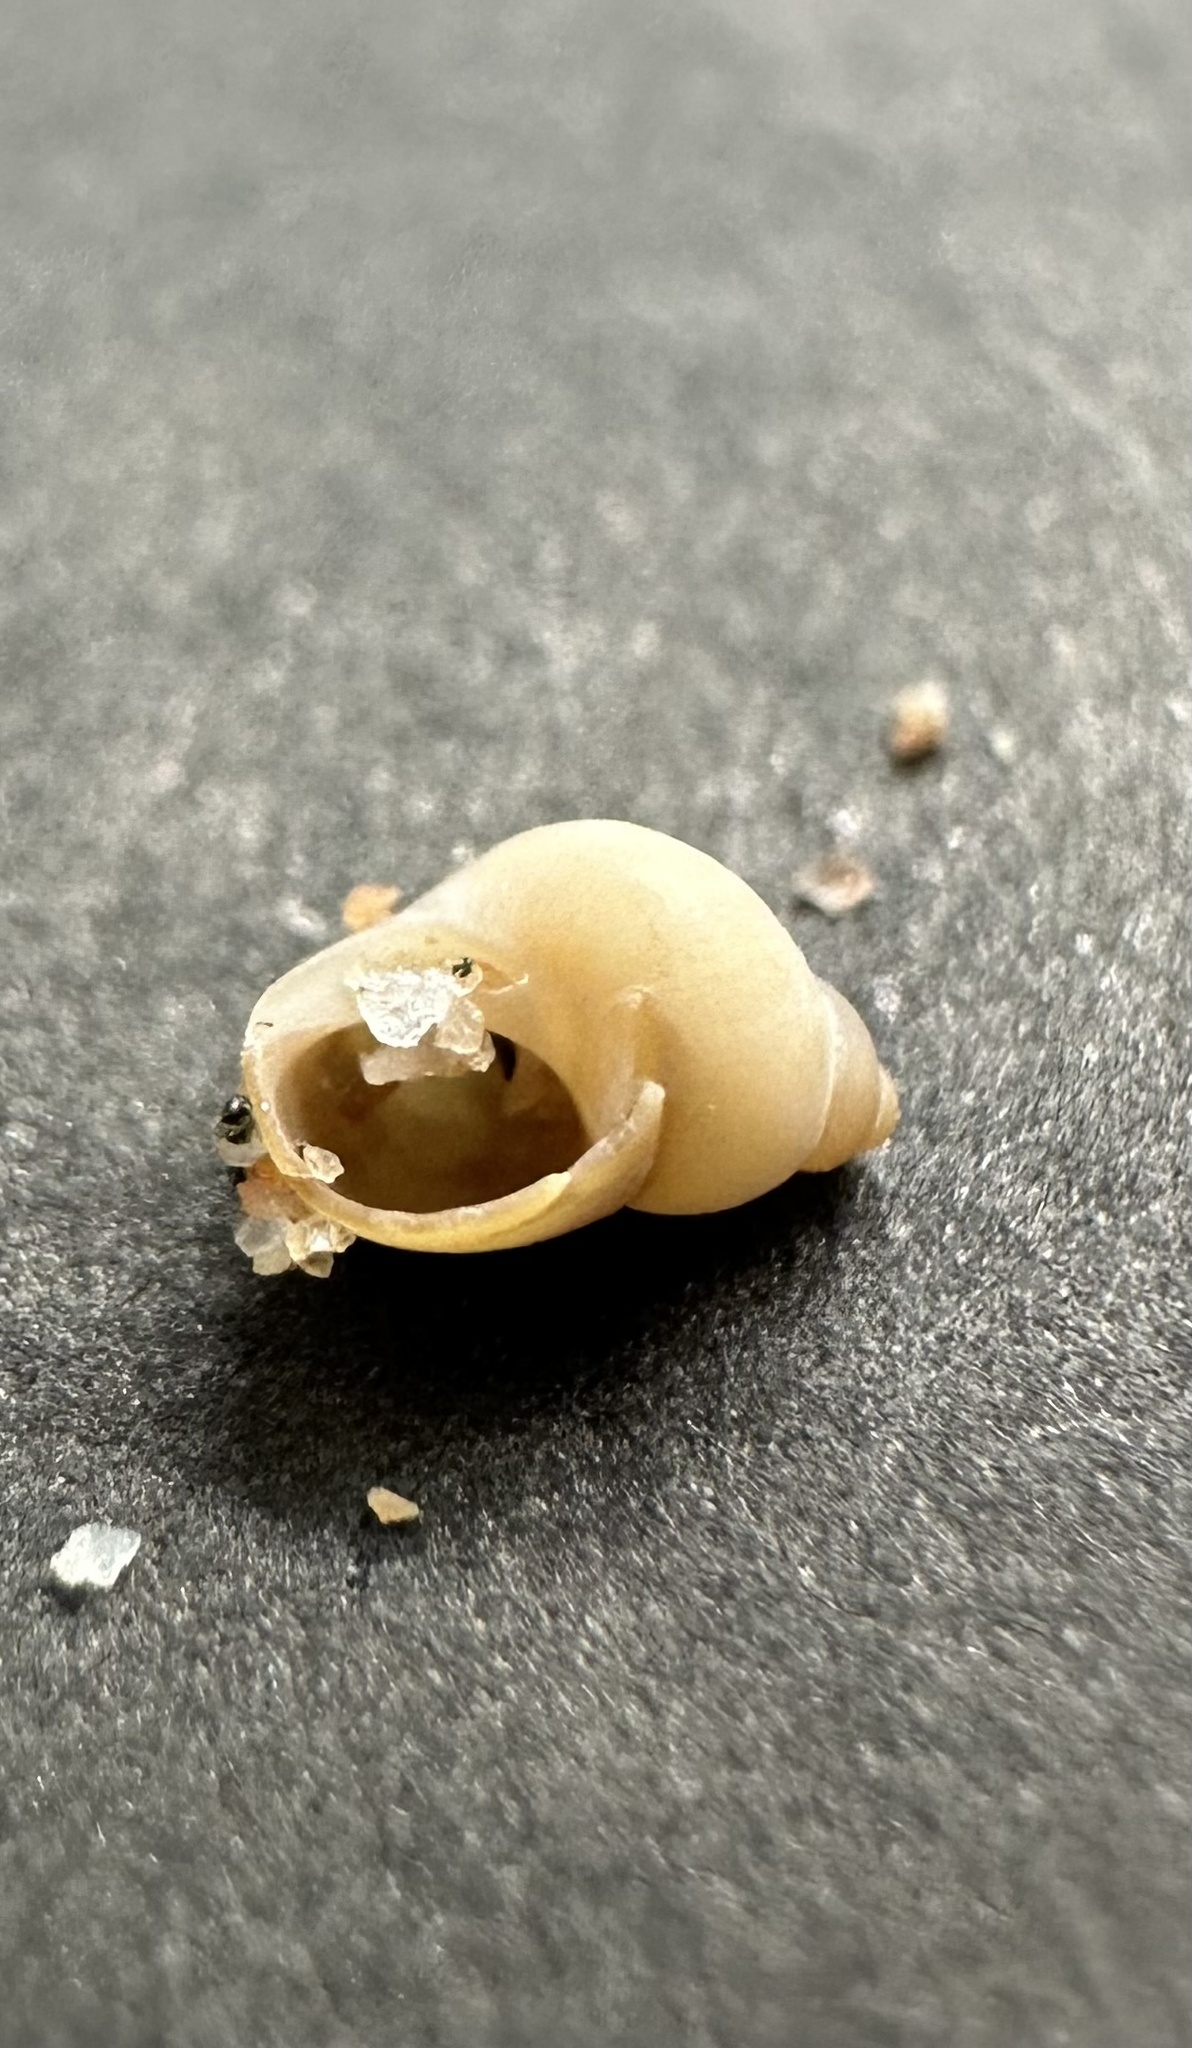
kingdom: Animalia
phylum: Mollusca
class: Gastropoda
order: Littorinimorpha
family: Littorinidae
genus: Lacuna
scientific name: Lacuna vincta
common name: Banded chink shell
